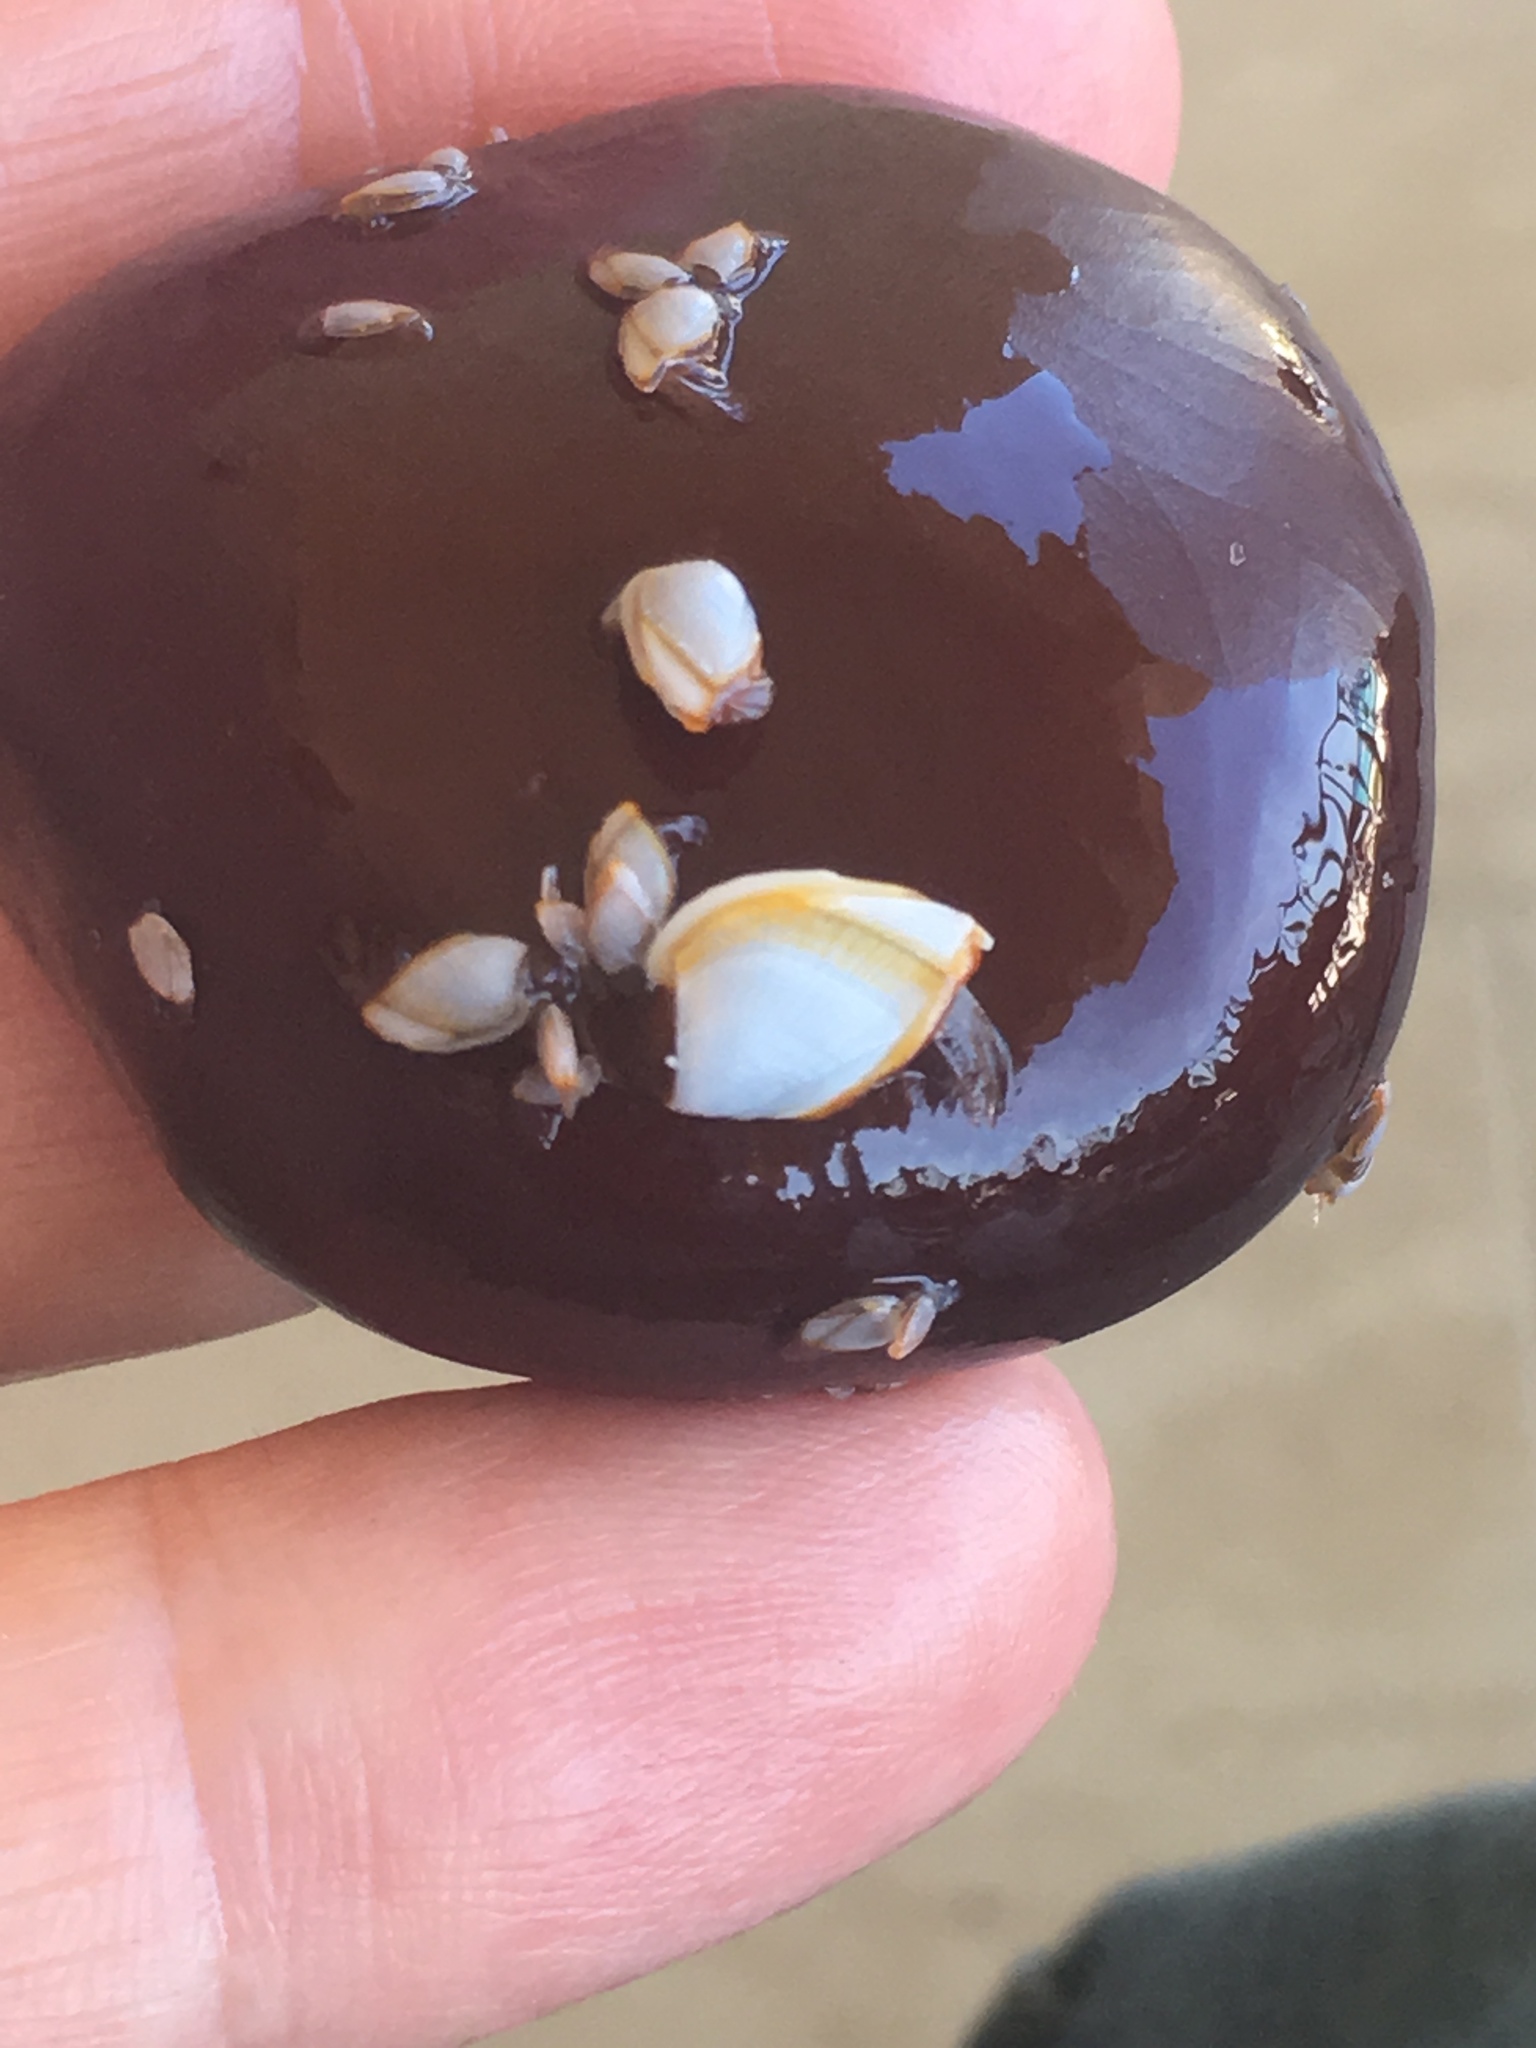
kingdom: Animalia
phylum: Arthropoda
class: Maxillopoda
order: Pedunculata
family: Lepadidae
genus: Lepas
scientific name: Lepas anserifera
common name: Goose barnacle
